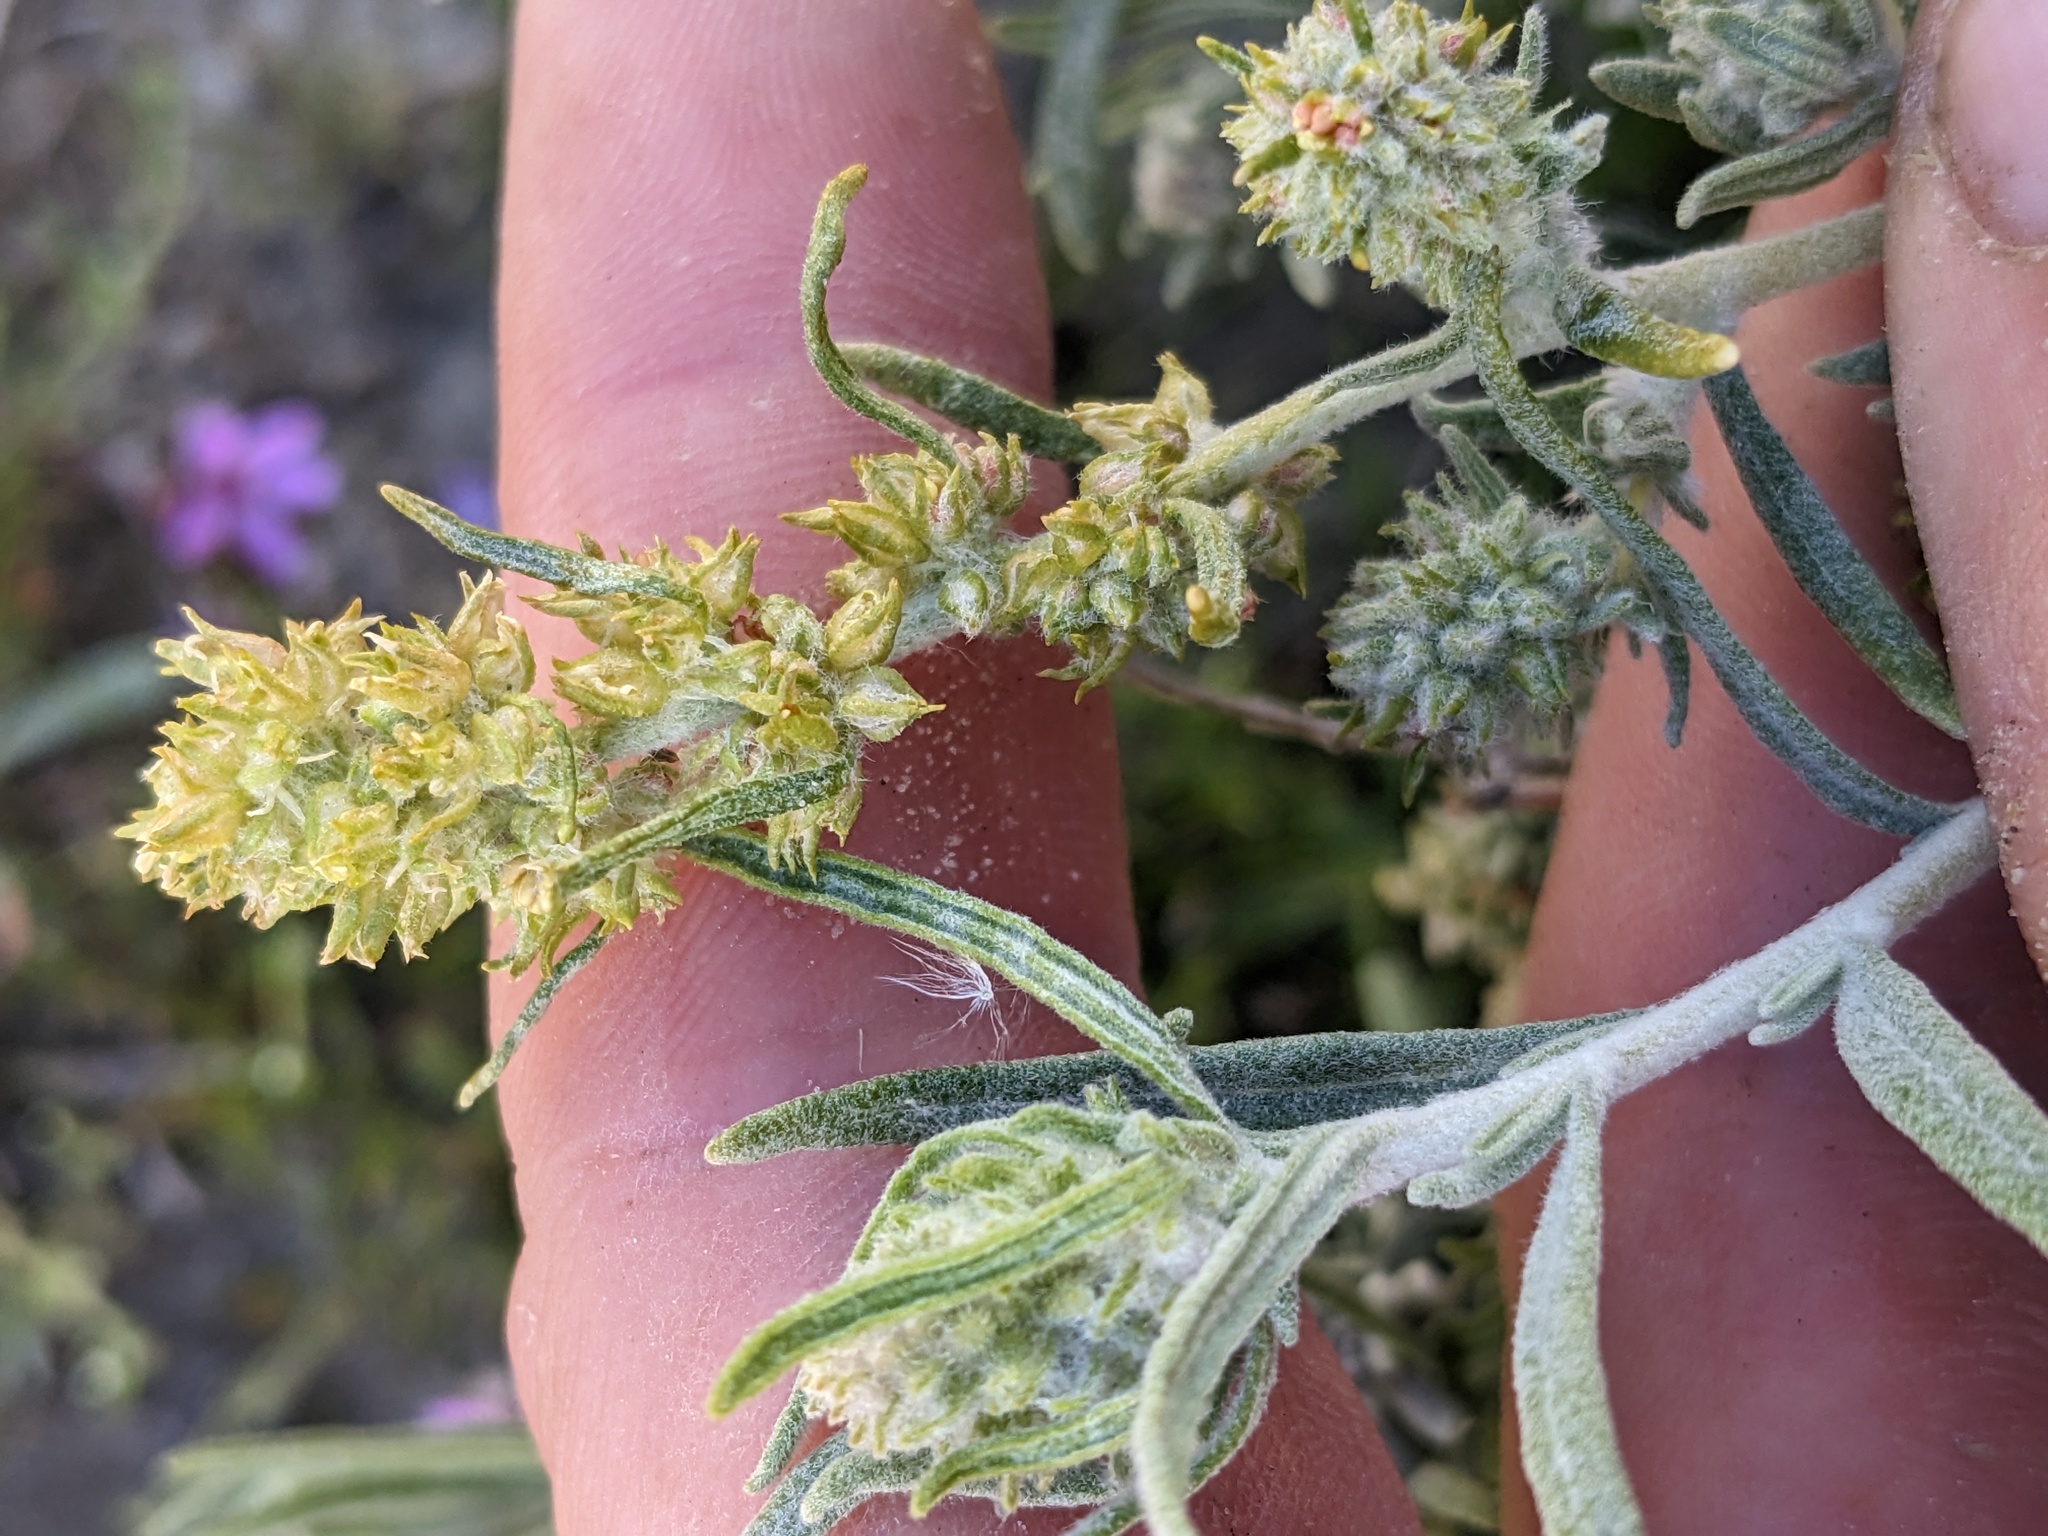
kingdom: Plantae
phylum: Tracheophyta
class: Magnoliopsida
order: Caryophyllales
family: Amaranthaceae
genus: Krascheninnikovia
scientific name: Krascheninnikovia lanata
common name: Winterfat
